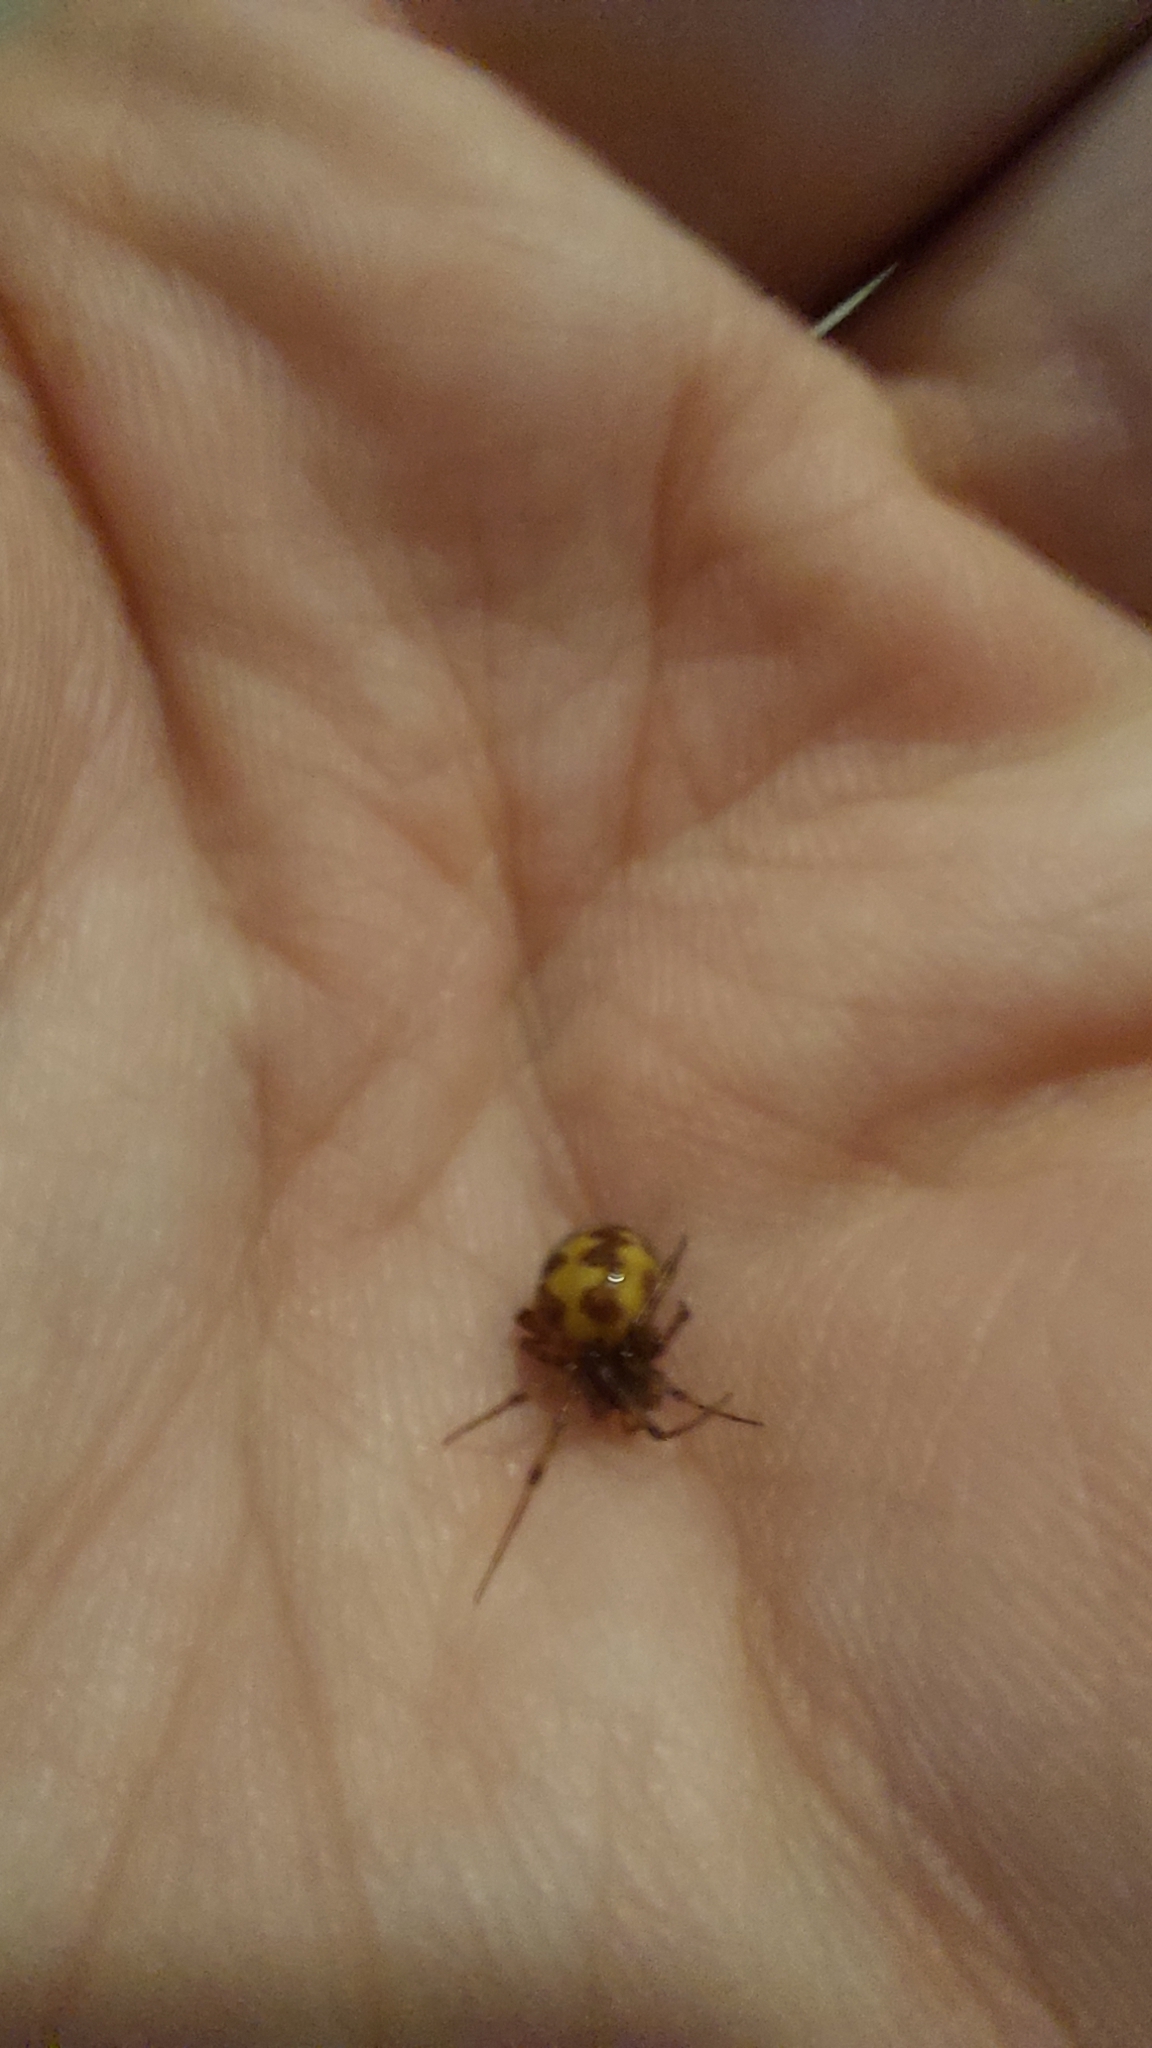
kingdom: Animalia
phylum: Arthropoda
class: Arachnida
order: Araneae
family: Theridiidae
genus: Steatoda
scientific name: Steatoda triangulosa
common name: Triangulate bud spider
